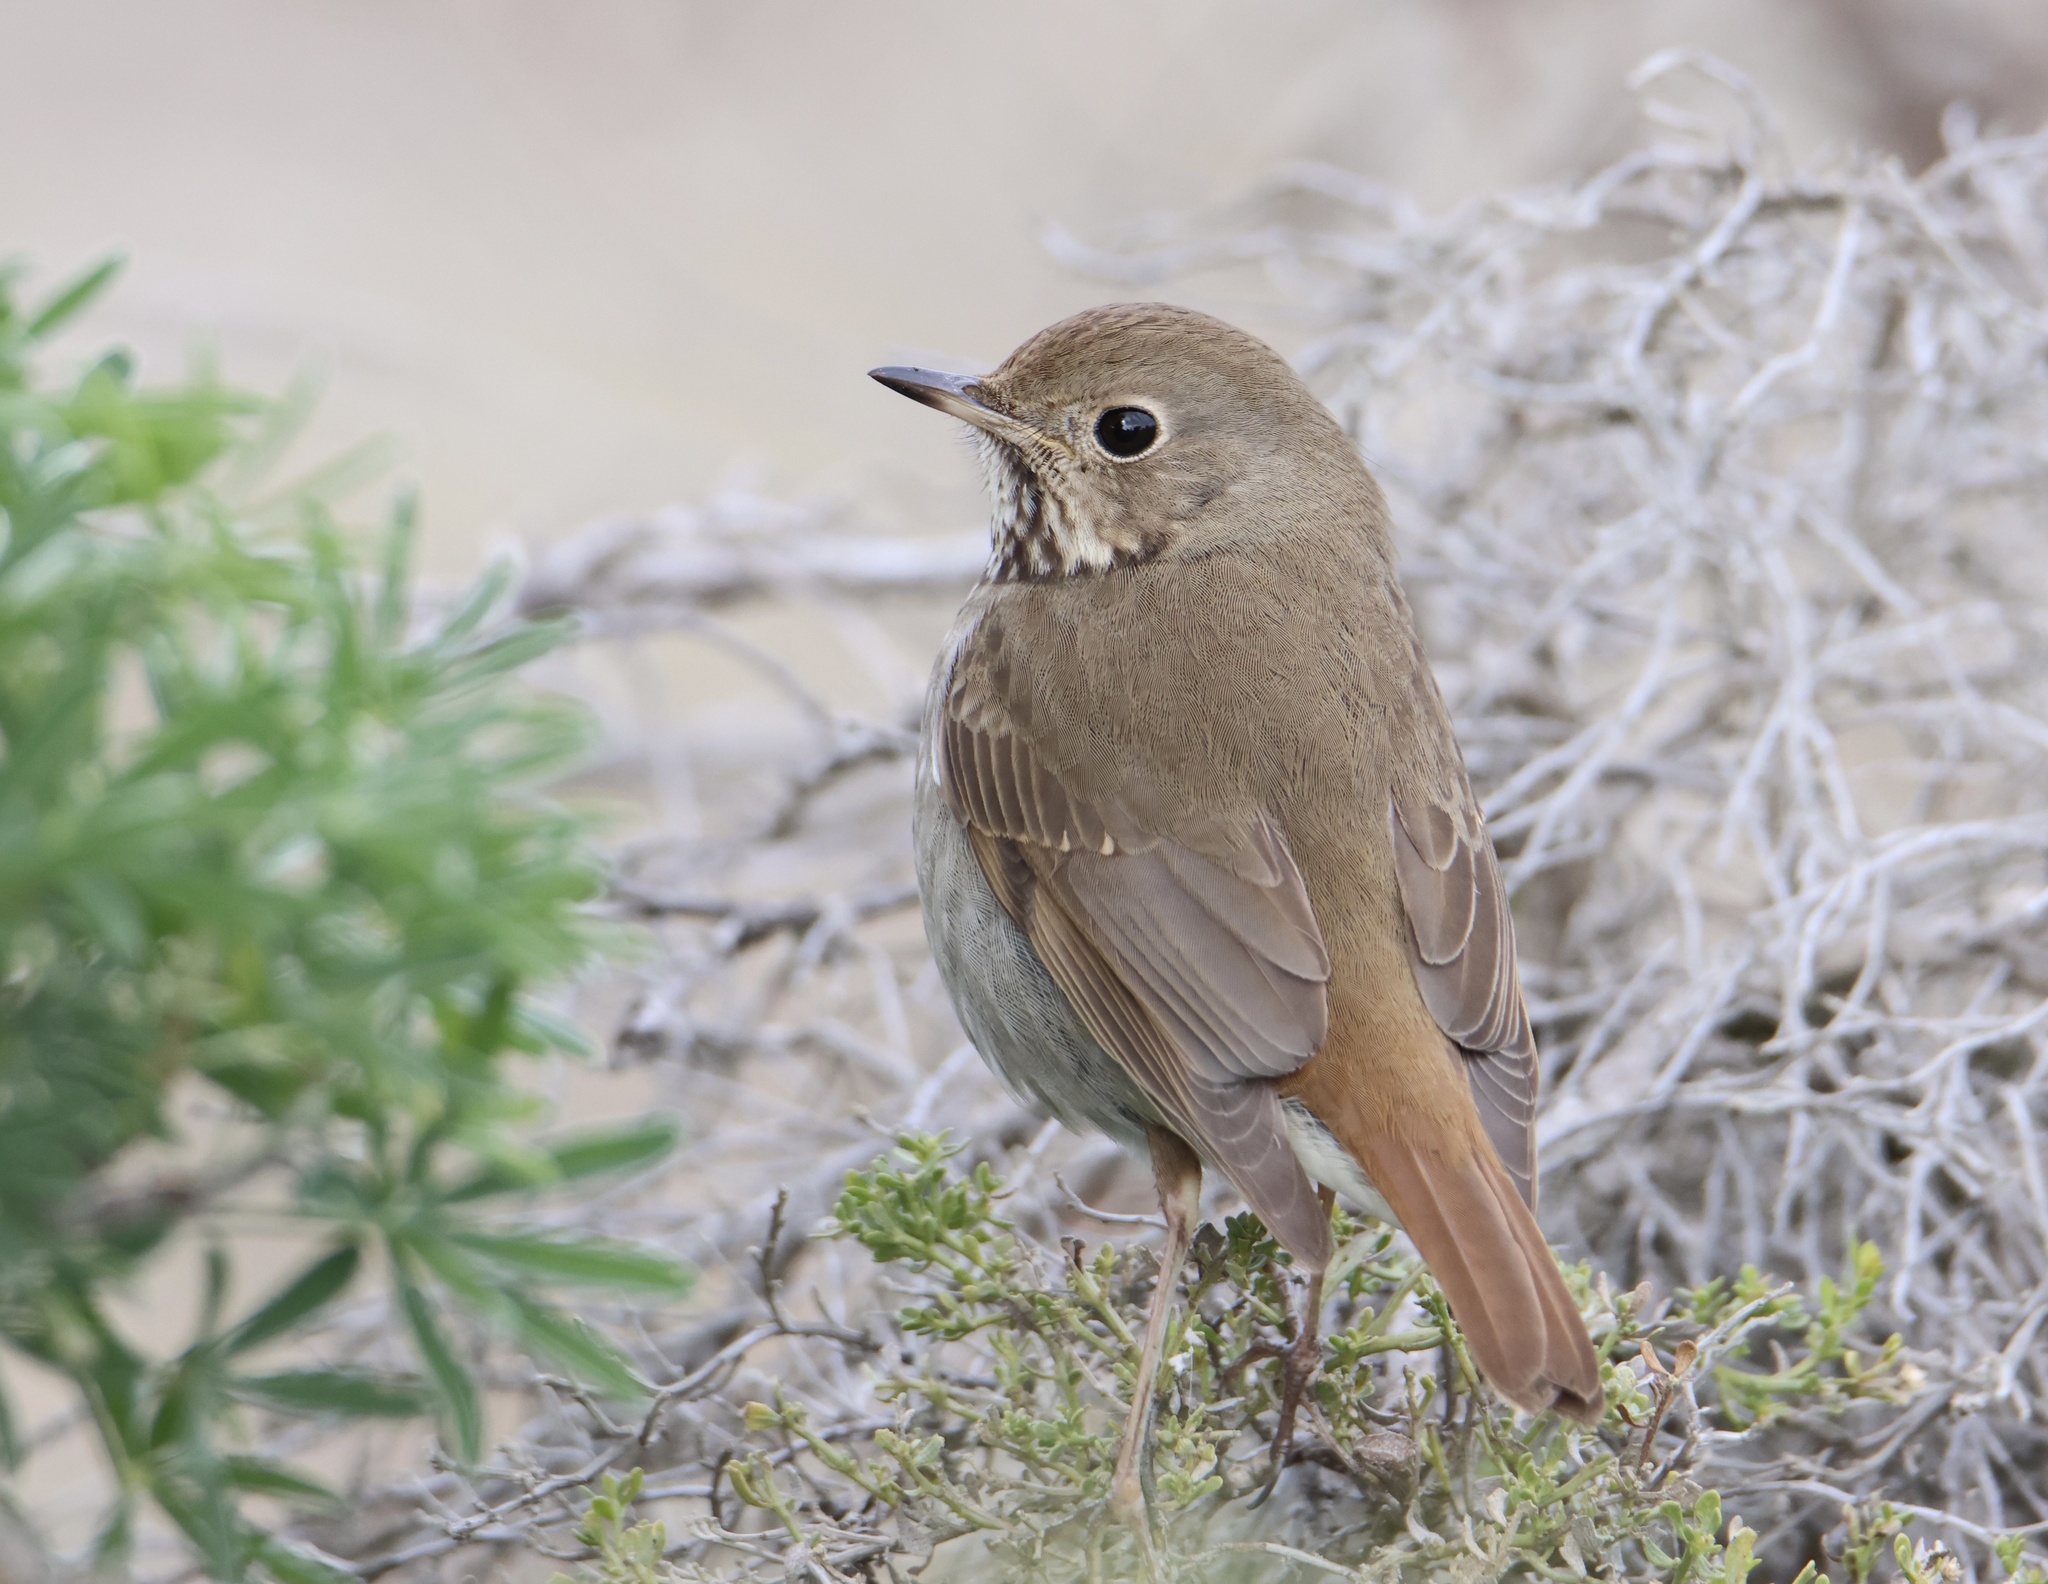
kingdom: Animalia
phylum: Chordata
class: Aves
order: Passeriformes
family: Turdidae
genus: Catharus
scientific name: Catharus guttatus
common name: Hermit thrush
